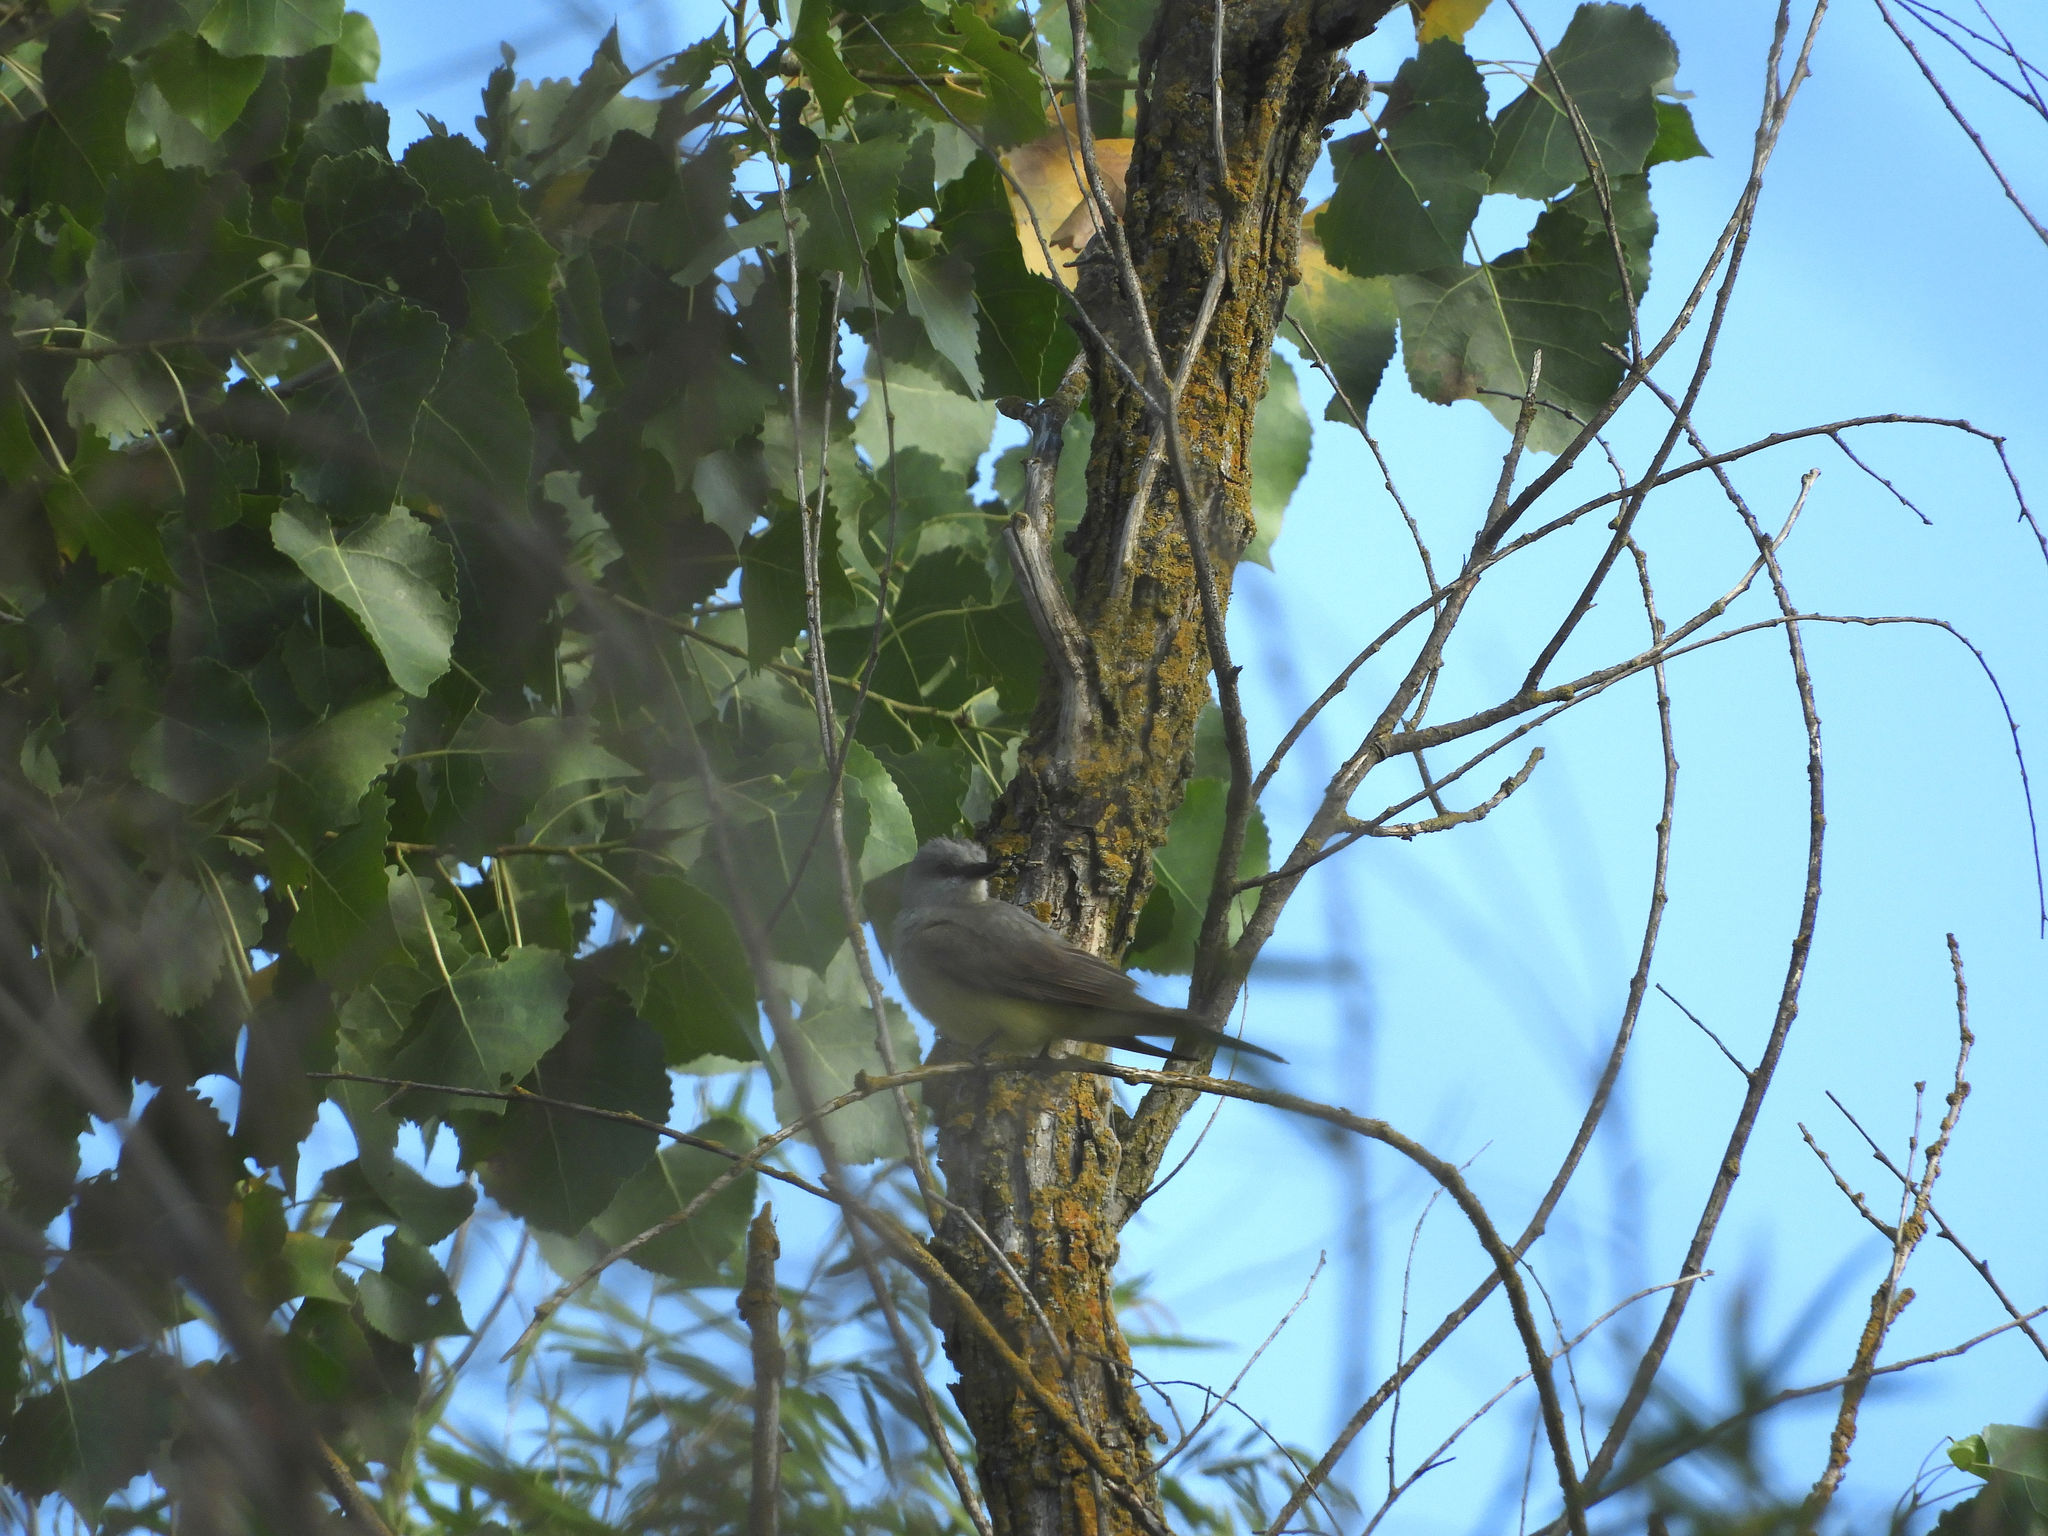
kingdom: Animalia
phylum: Chordata
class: Aves
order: Passeriformes
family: Tyrannidae
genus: Tyrannus
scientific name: Tyrannus verticalis
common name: Western kingbird
